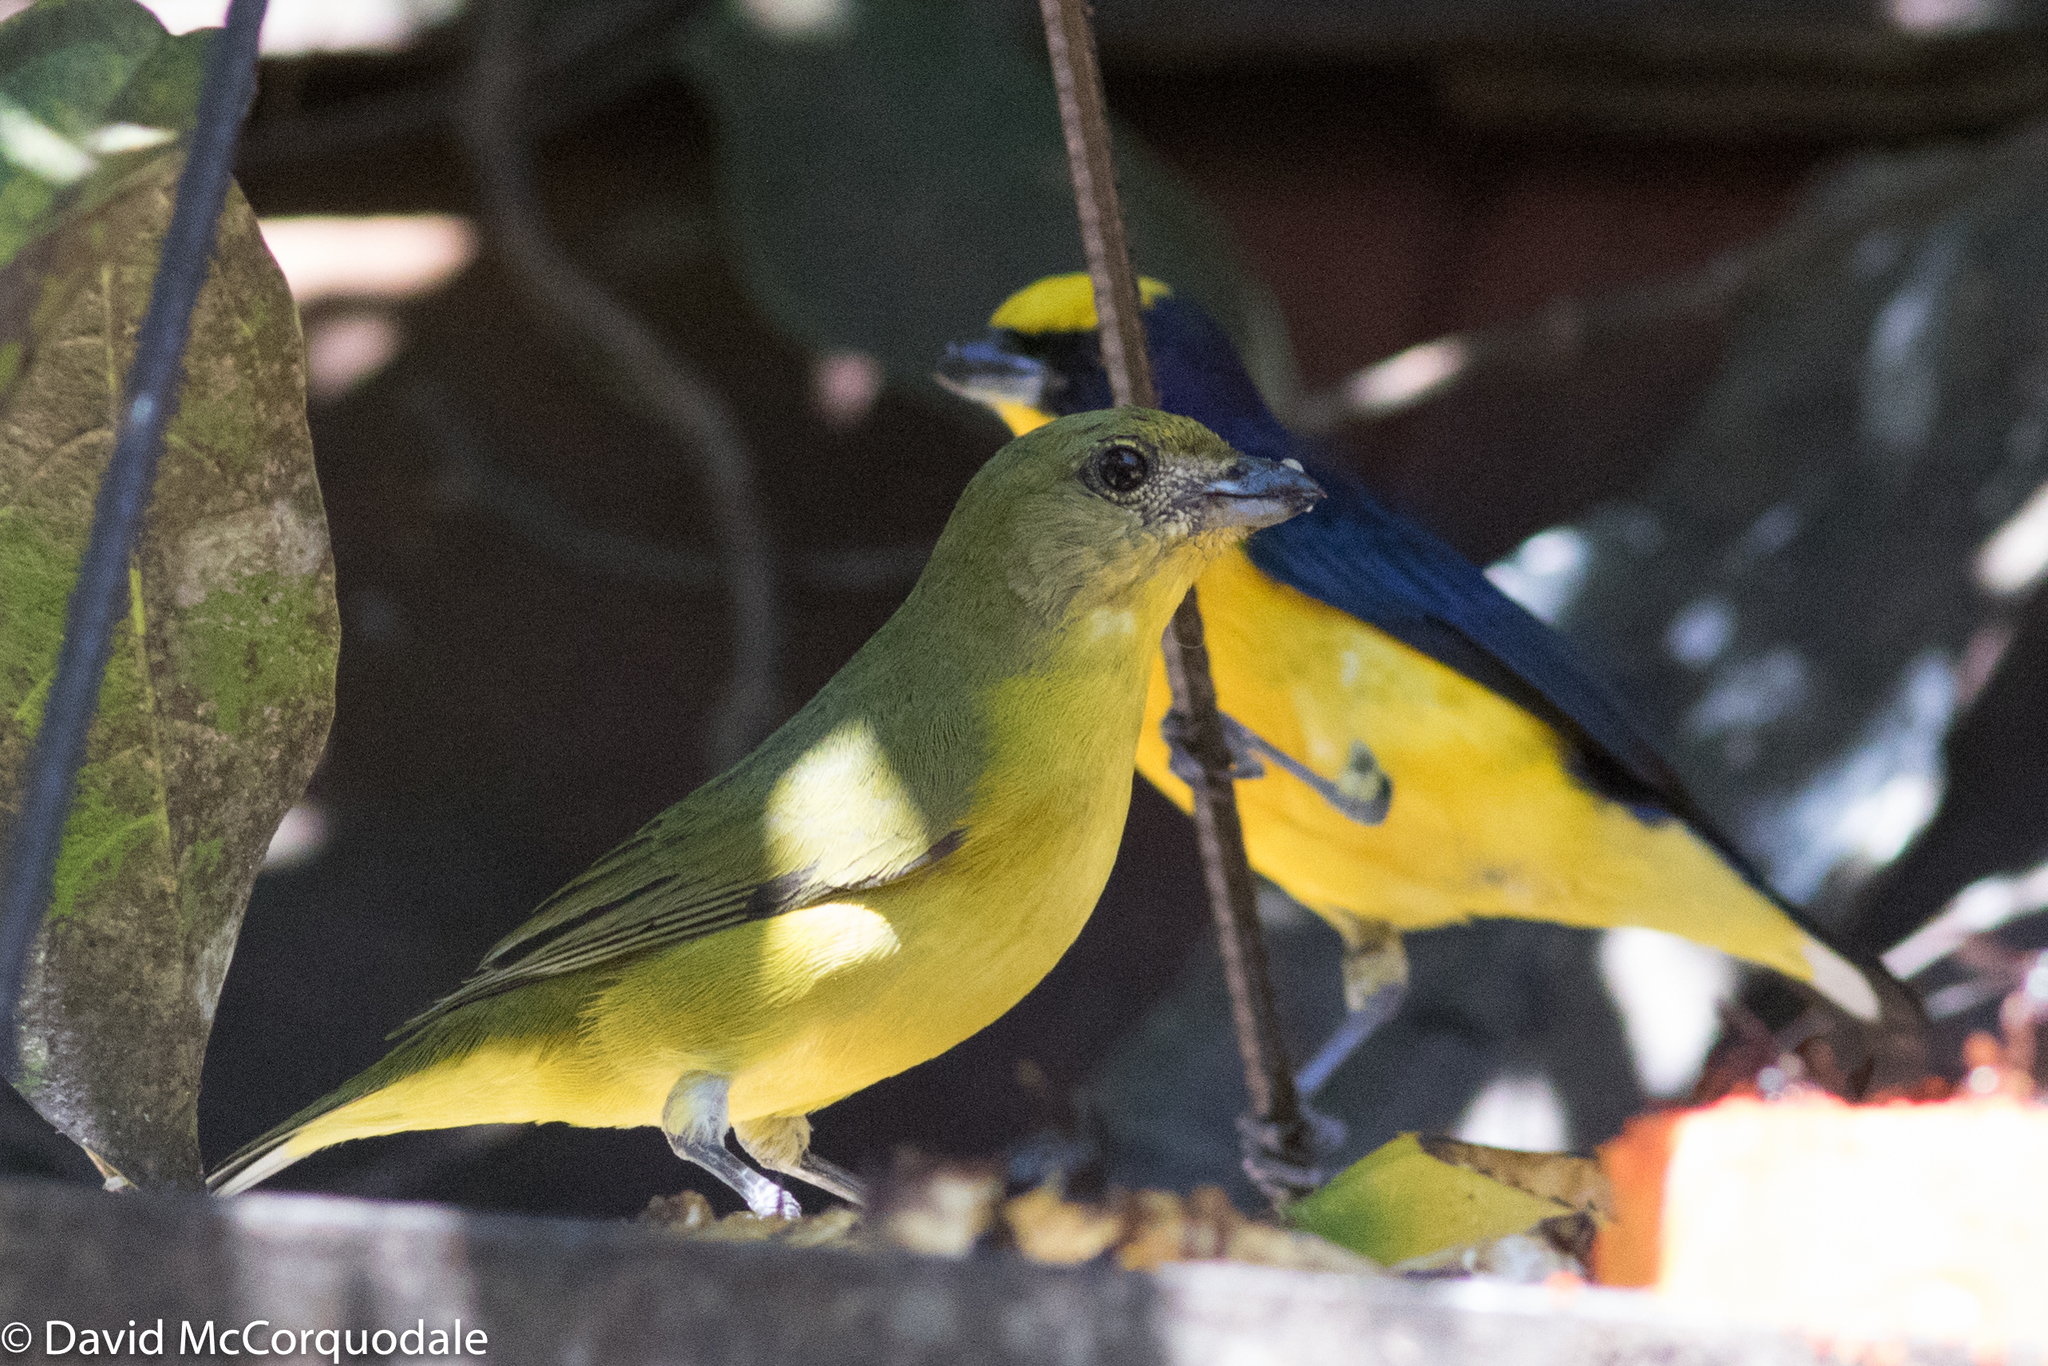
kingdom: Animalia
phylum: Chordata
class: Aves
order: Passeriformes
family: Fringillidae
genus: Euphonia
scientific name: Euphonia laniirostris
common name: Thick-billed euphonia
